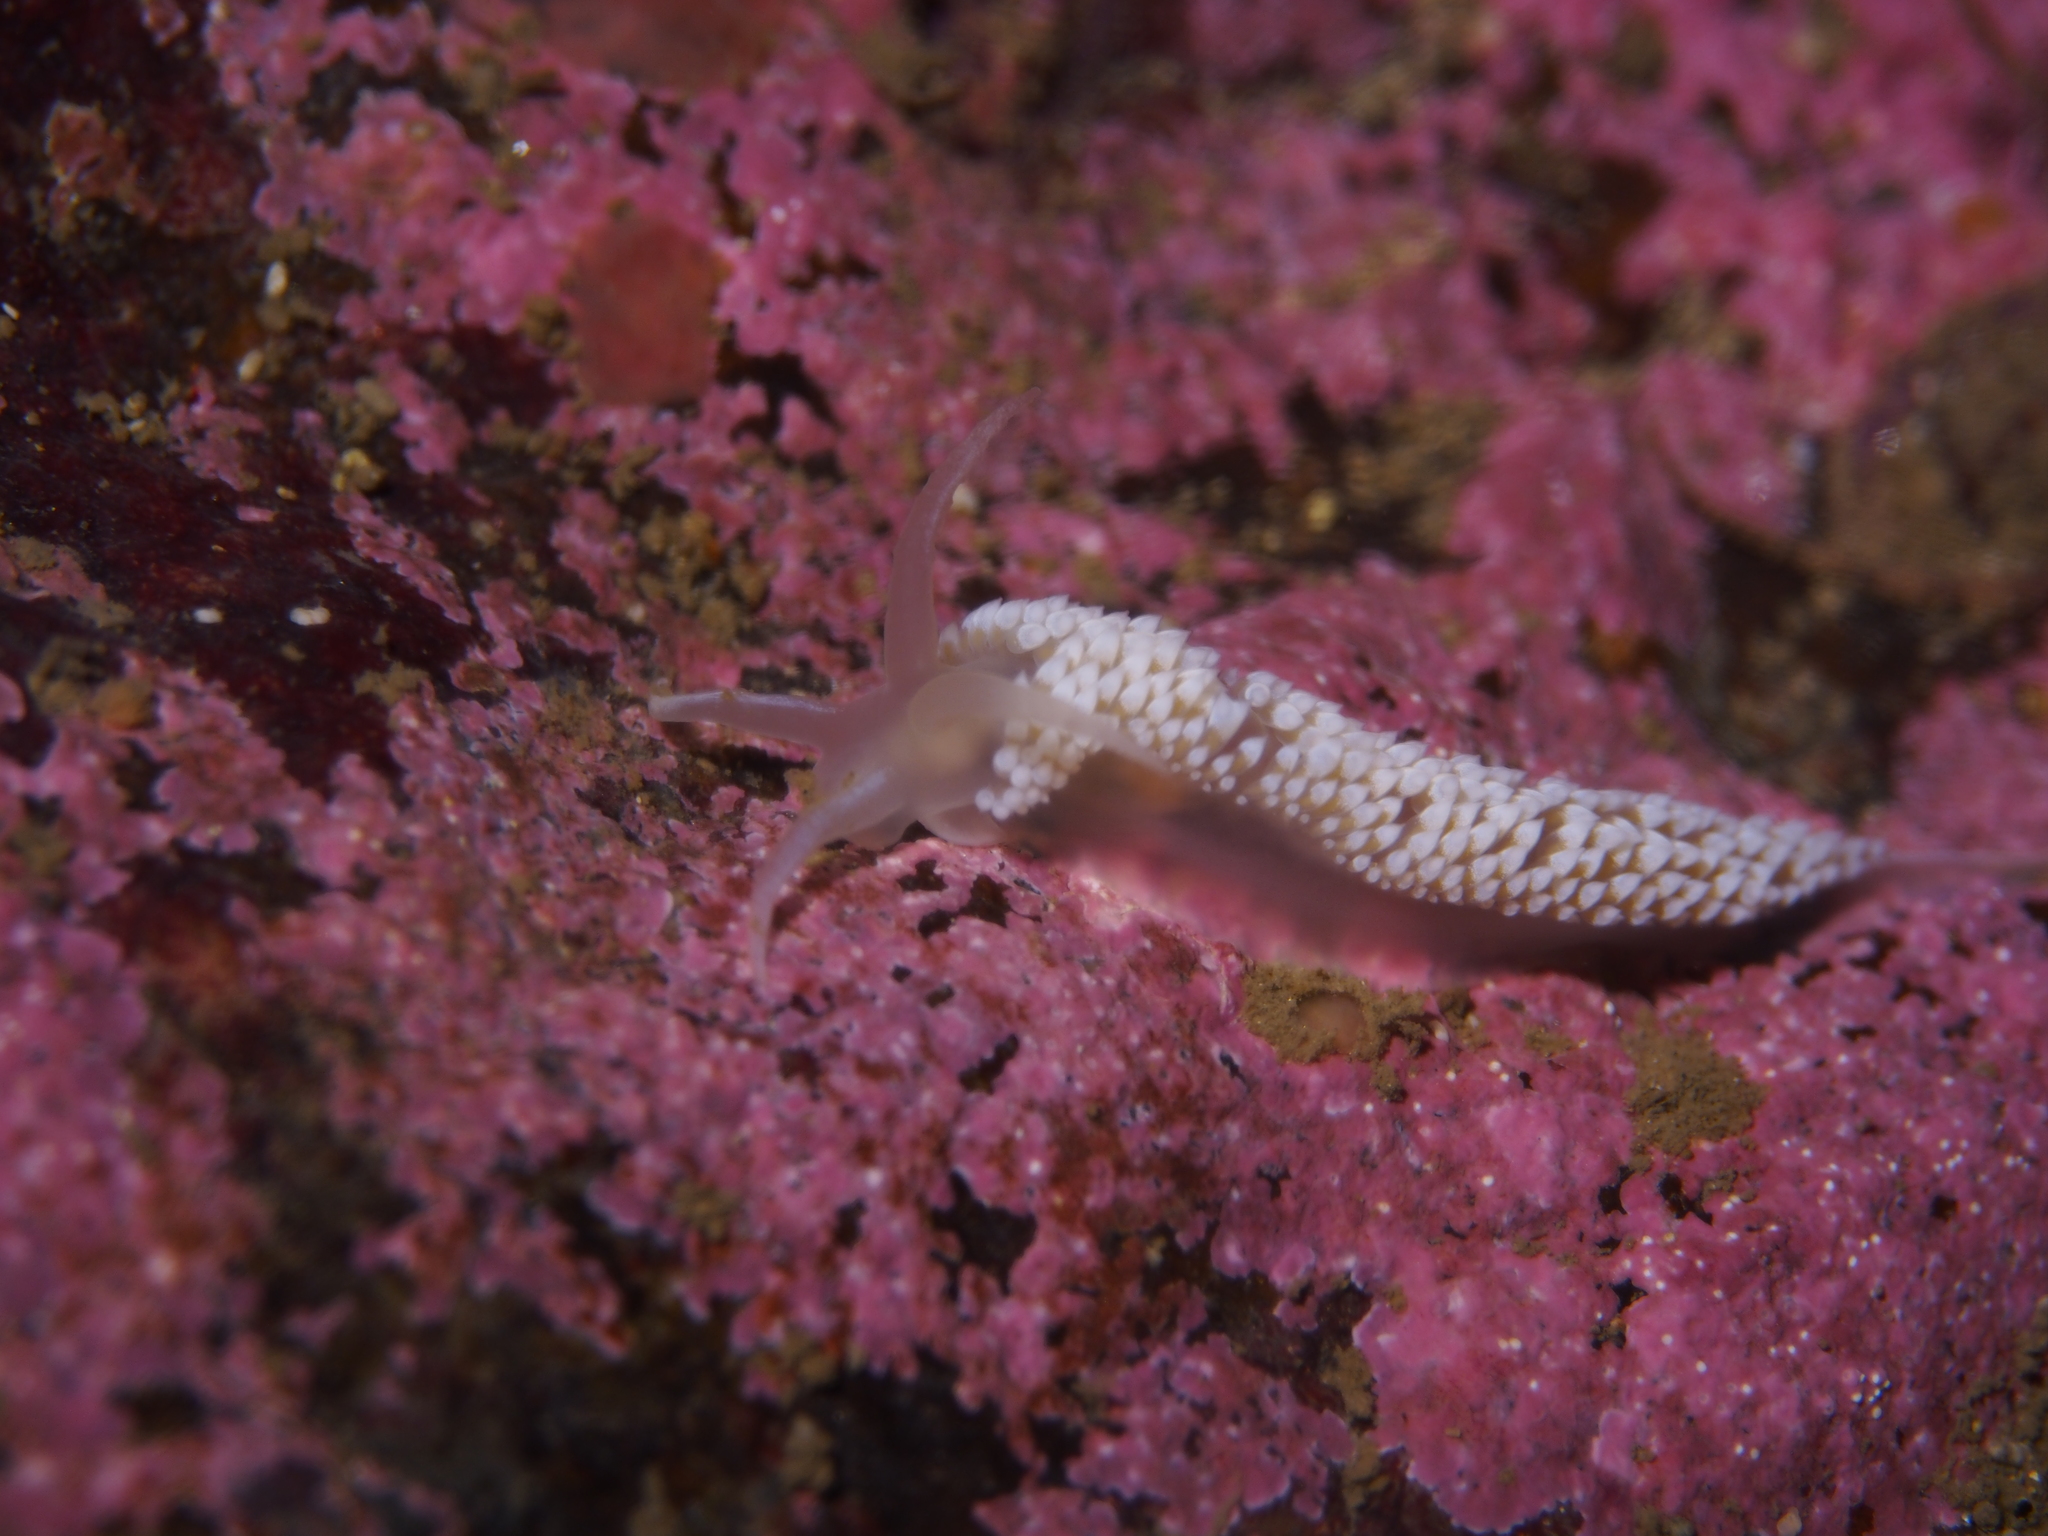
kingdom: Animalia
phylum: Mollusca
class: Gastropoda
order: Nudibranchia
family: Coryphellidae
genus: Coryphella
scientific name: Coryphella verrucosa
